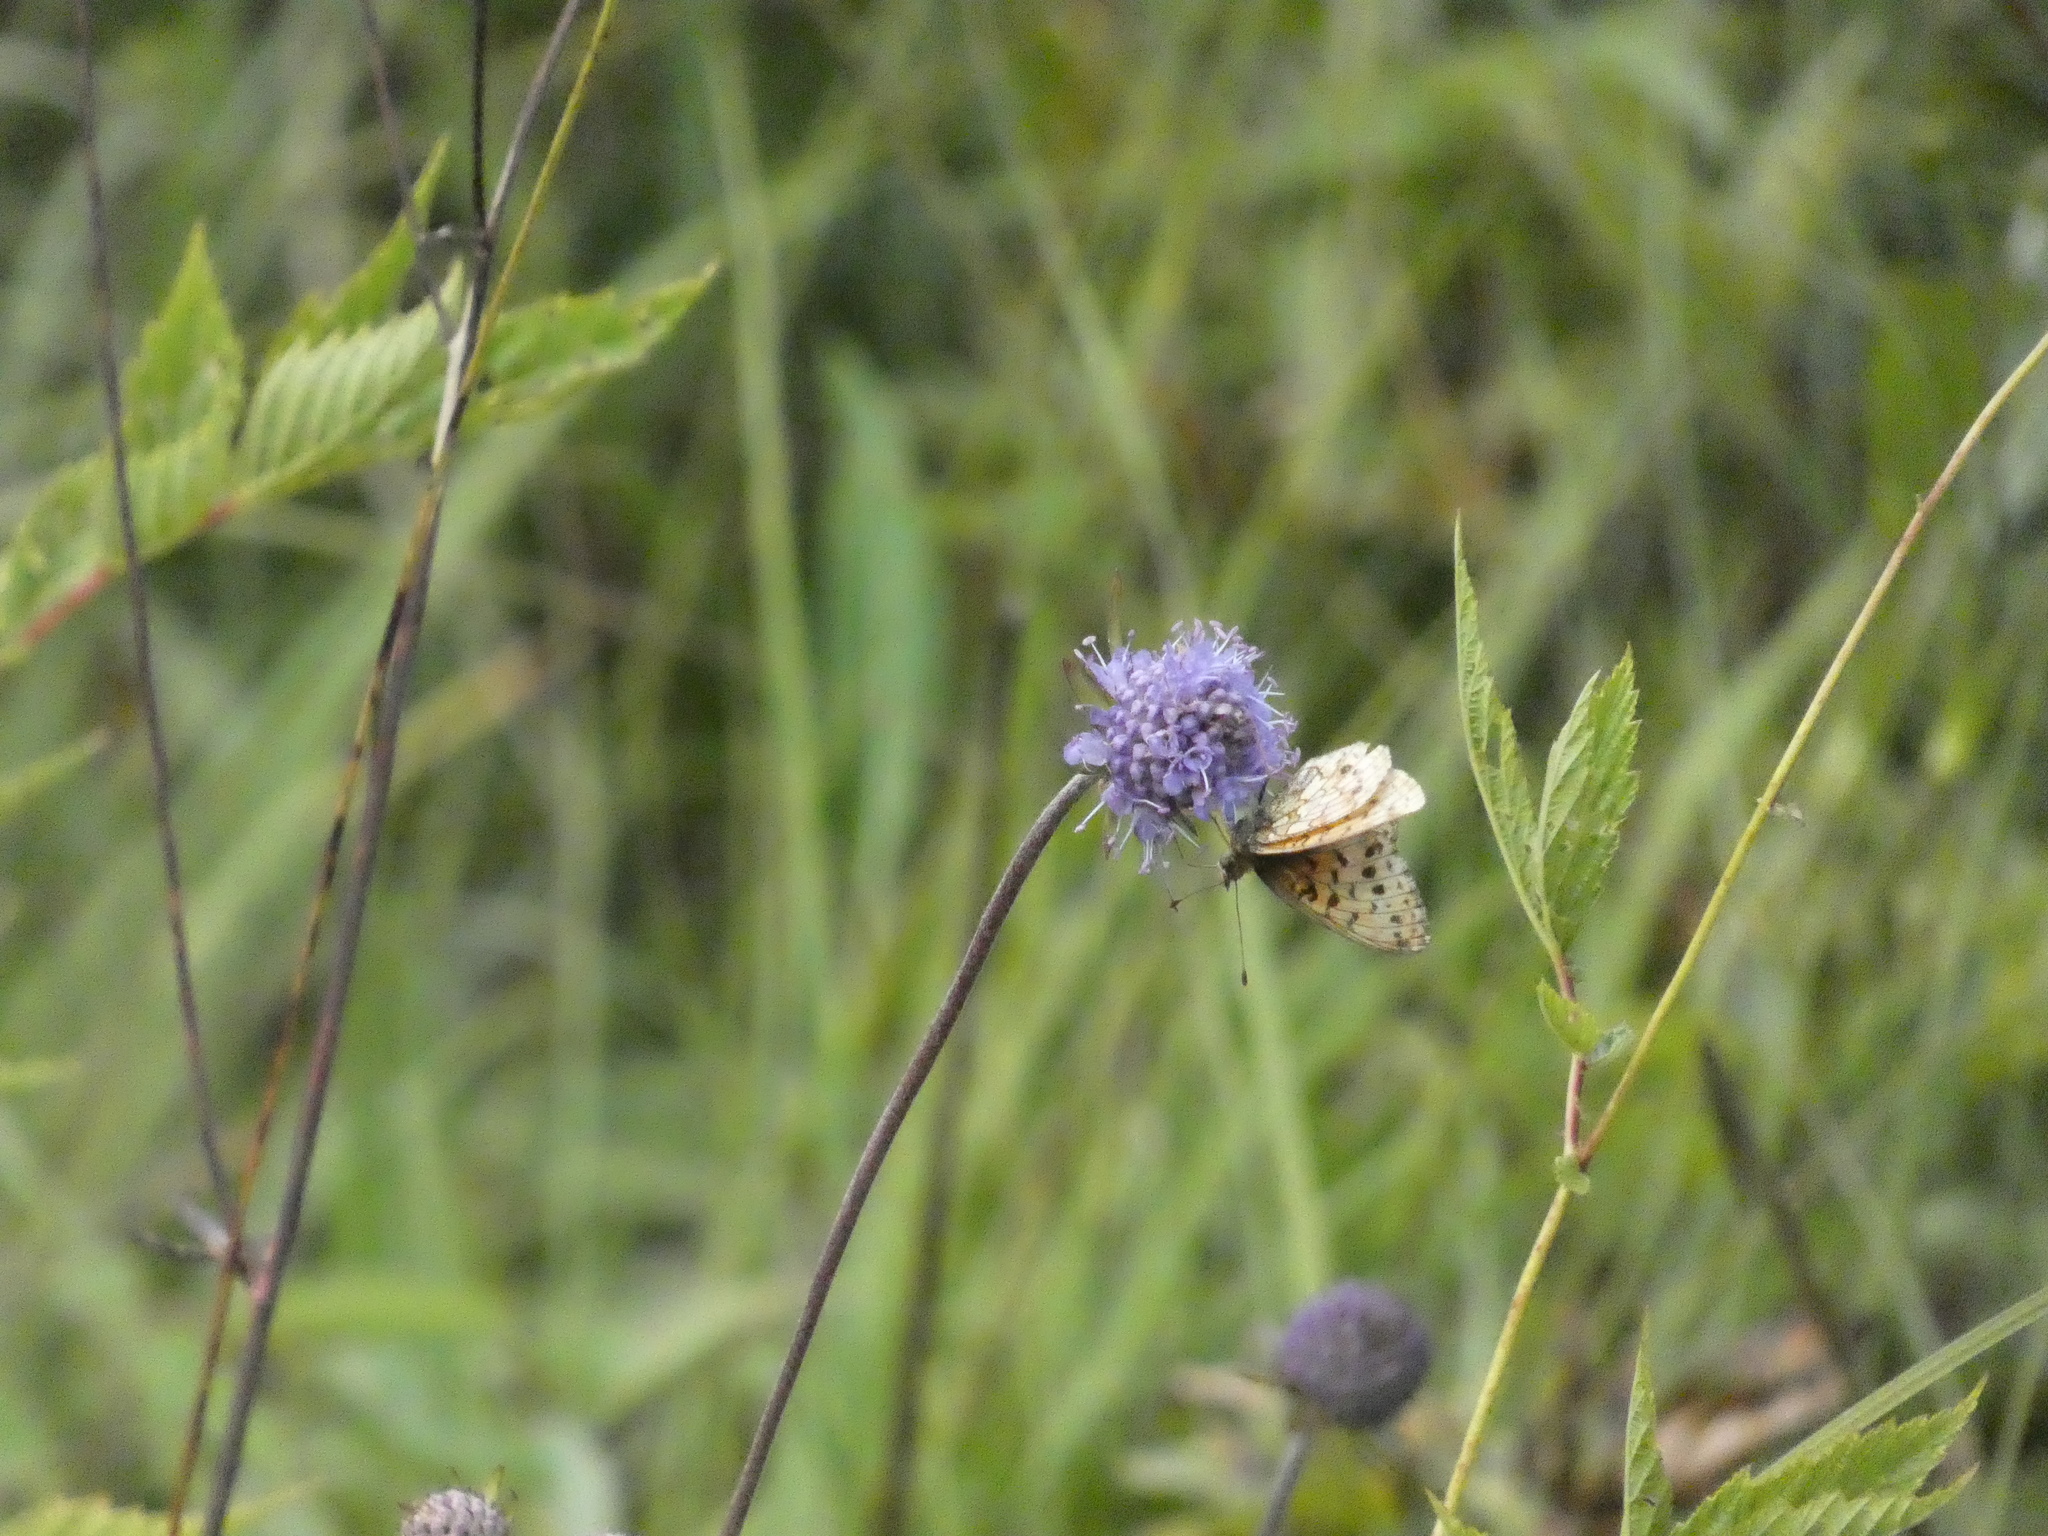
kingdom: Animalia
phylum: Arthropoda
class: Insecta
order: Lepidoptera
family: Nymphalidae
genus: Brenthis
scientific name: Brenthis ino
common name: Lesser marbled fritillary
